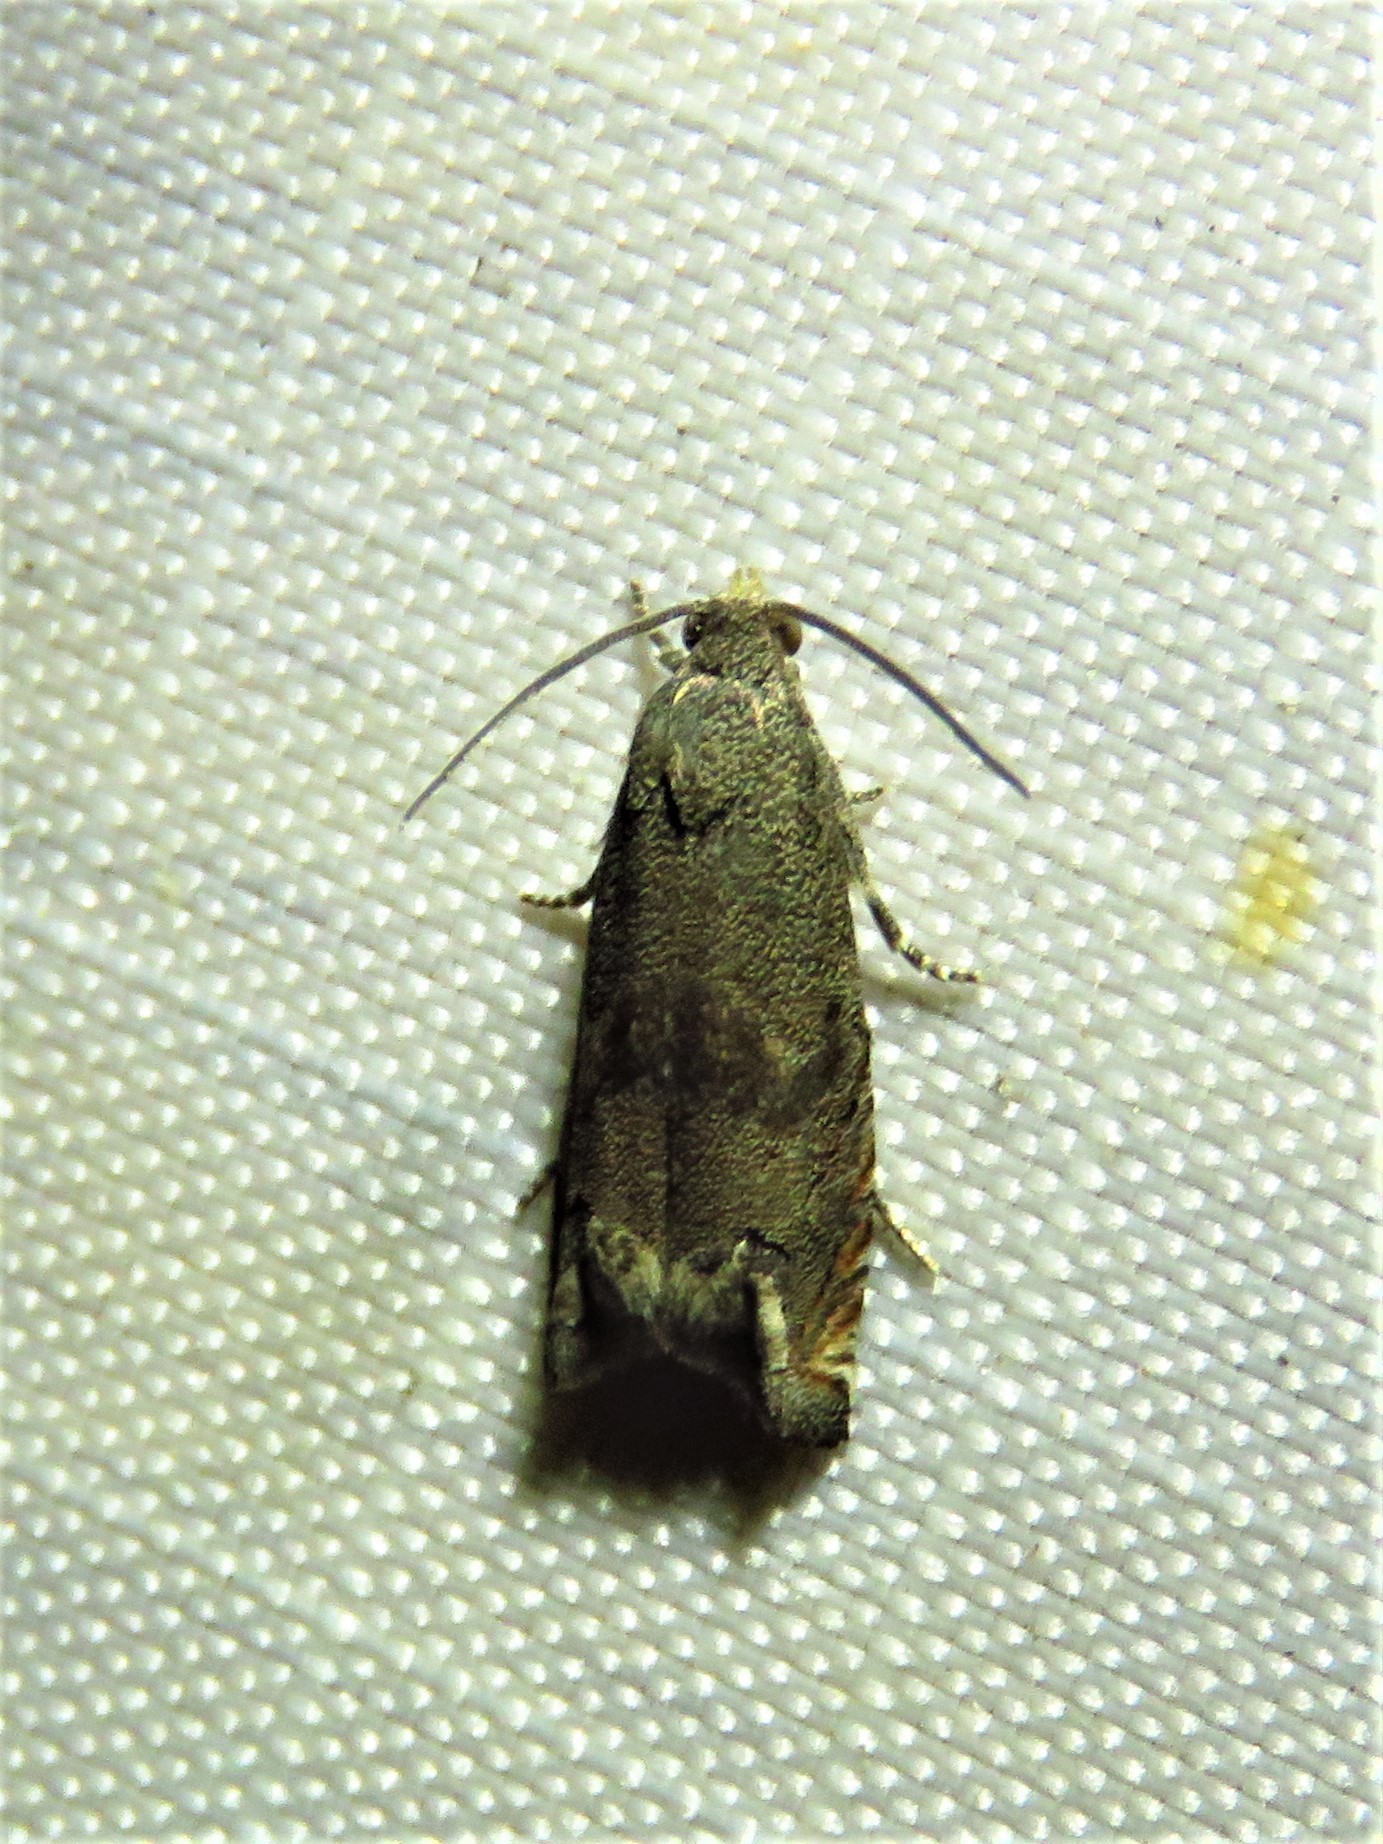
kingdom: Animalia
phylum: Arthropoda
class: Insecta
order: Lepidoptera
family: Tortricidae
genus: Epiblema
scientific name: Epiblema strenuana
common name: Ragweed borer moth
